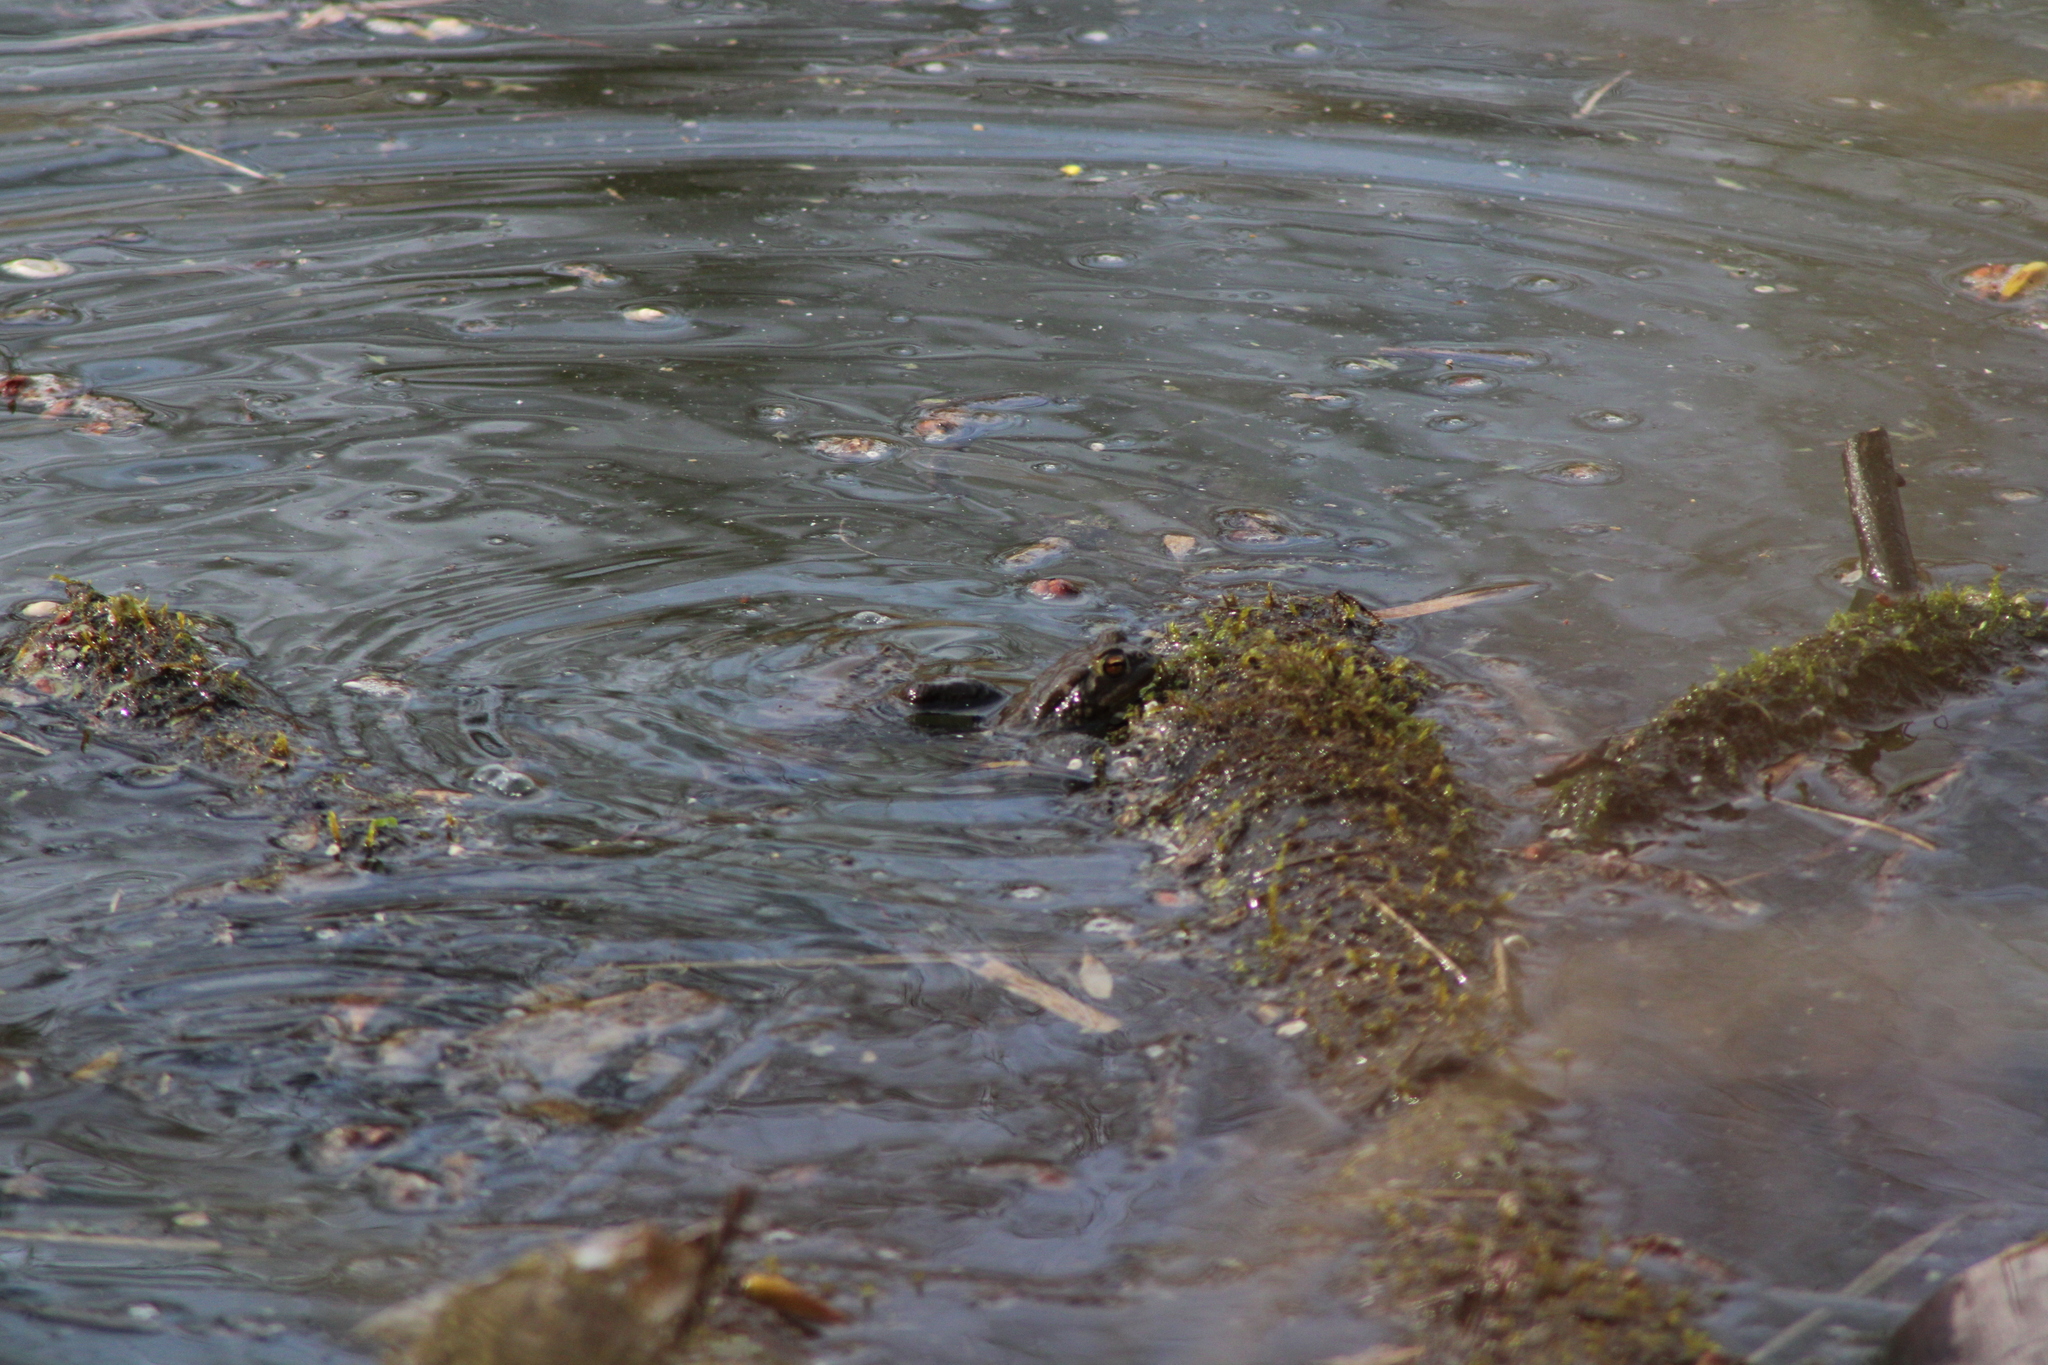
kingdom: Animalia
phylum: Chordata
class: Amphibia
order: Anura
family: Bufonidae
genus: Bufo
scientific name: Bufo bufo
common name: Common toad
